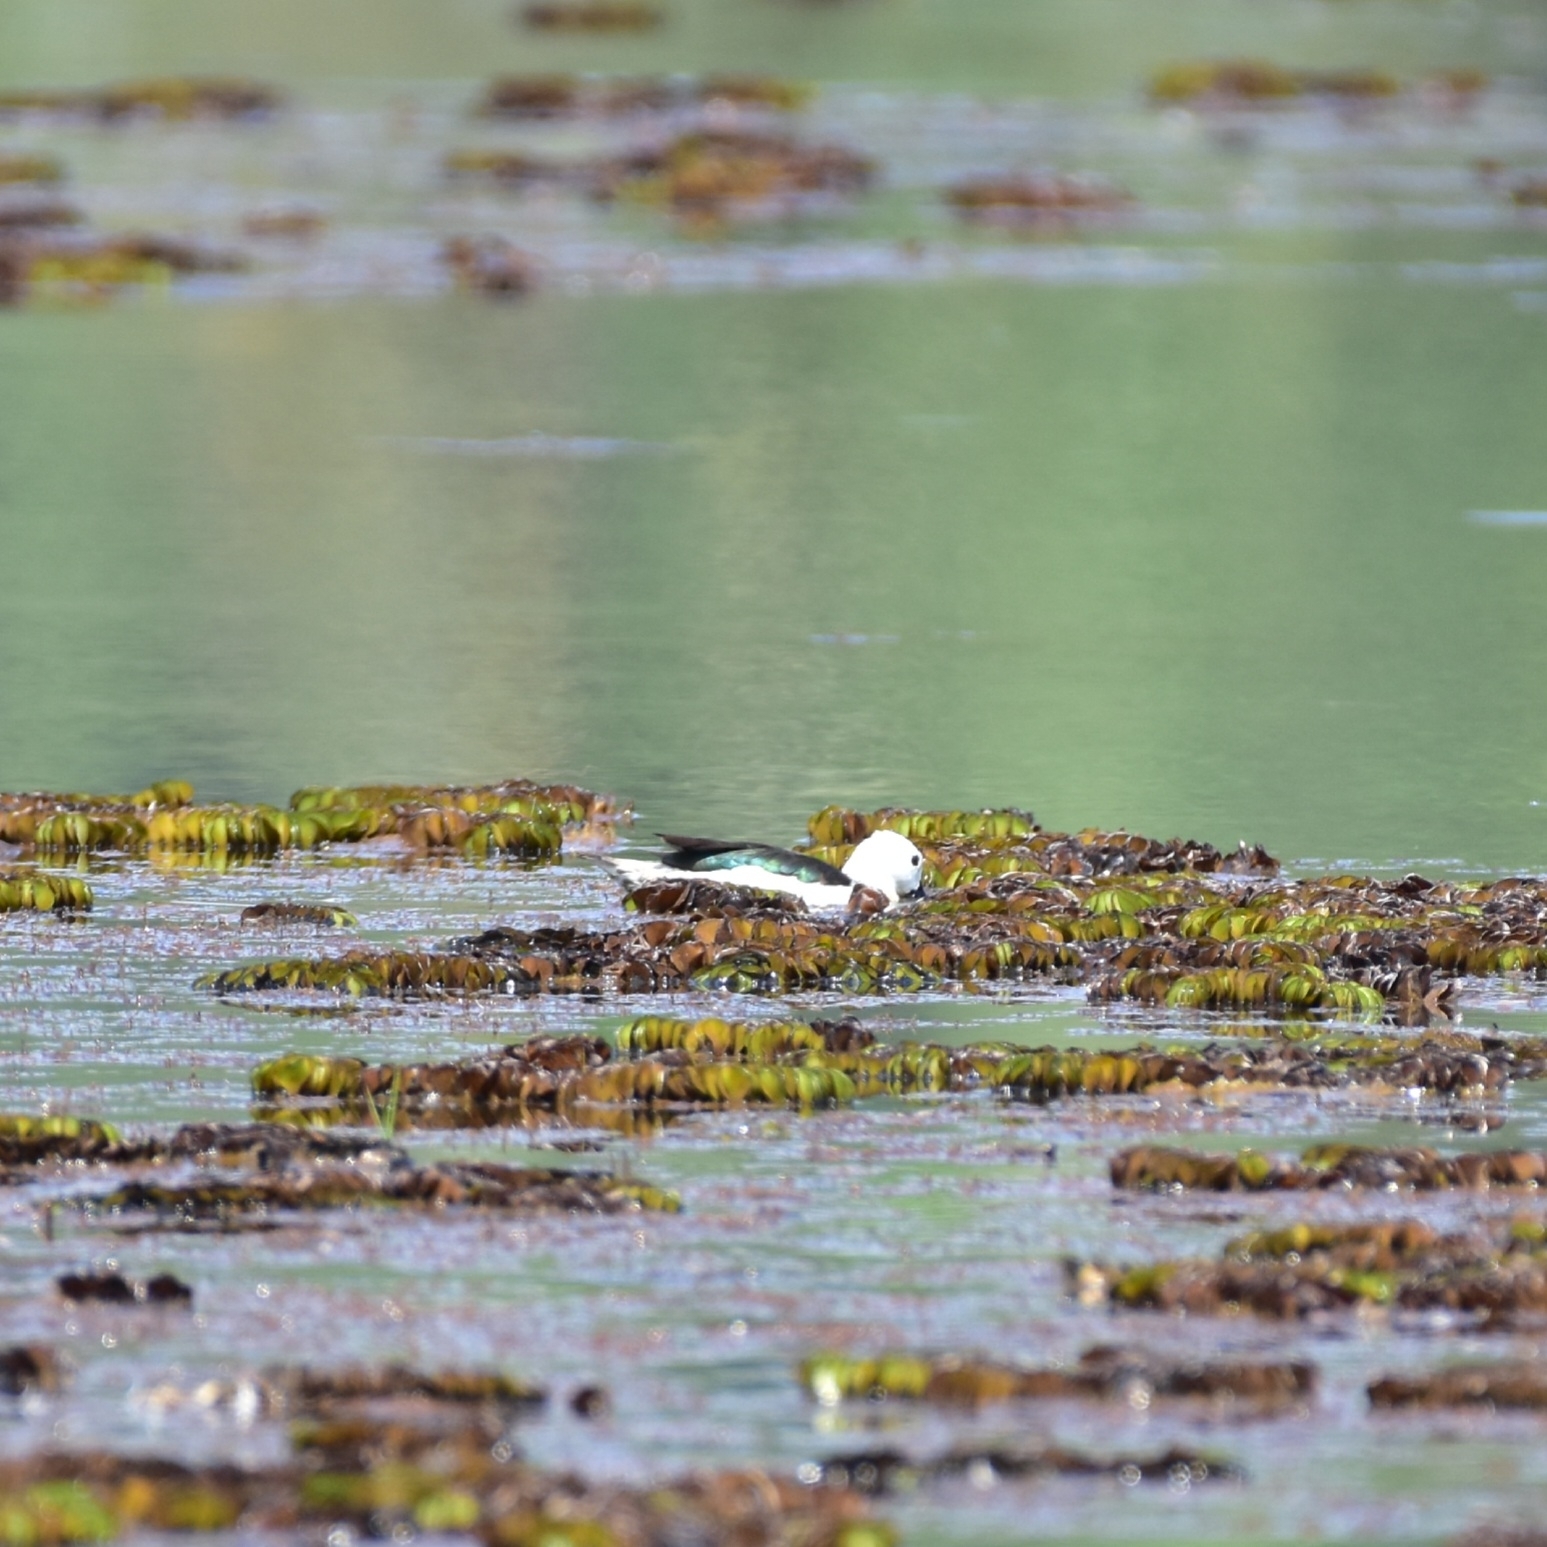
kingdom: Animalia
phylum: Chordata
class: Aves
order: Anseriformes
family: Anatidae
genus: Nettapus
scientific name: Nettapus coromandelianus
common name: Cotton pygmy-goose
